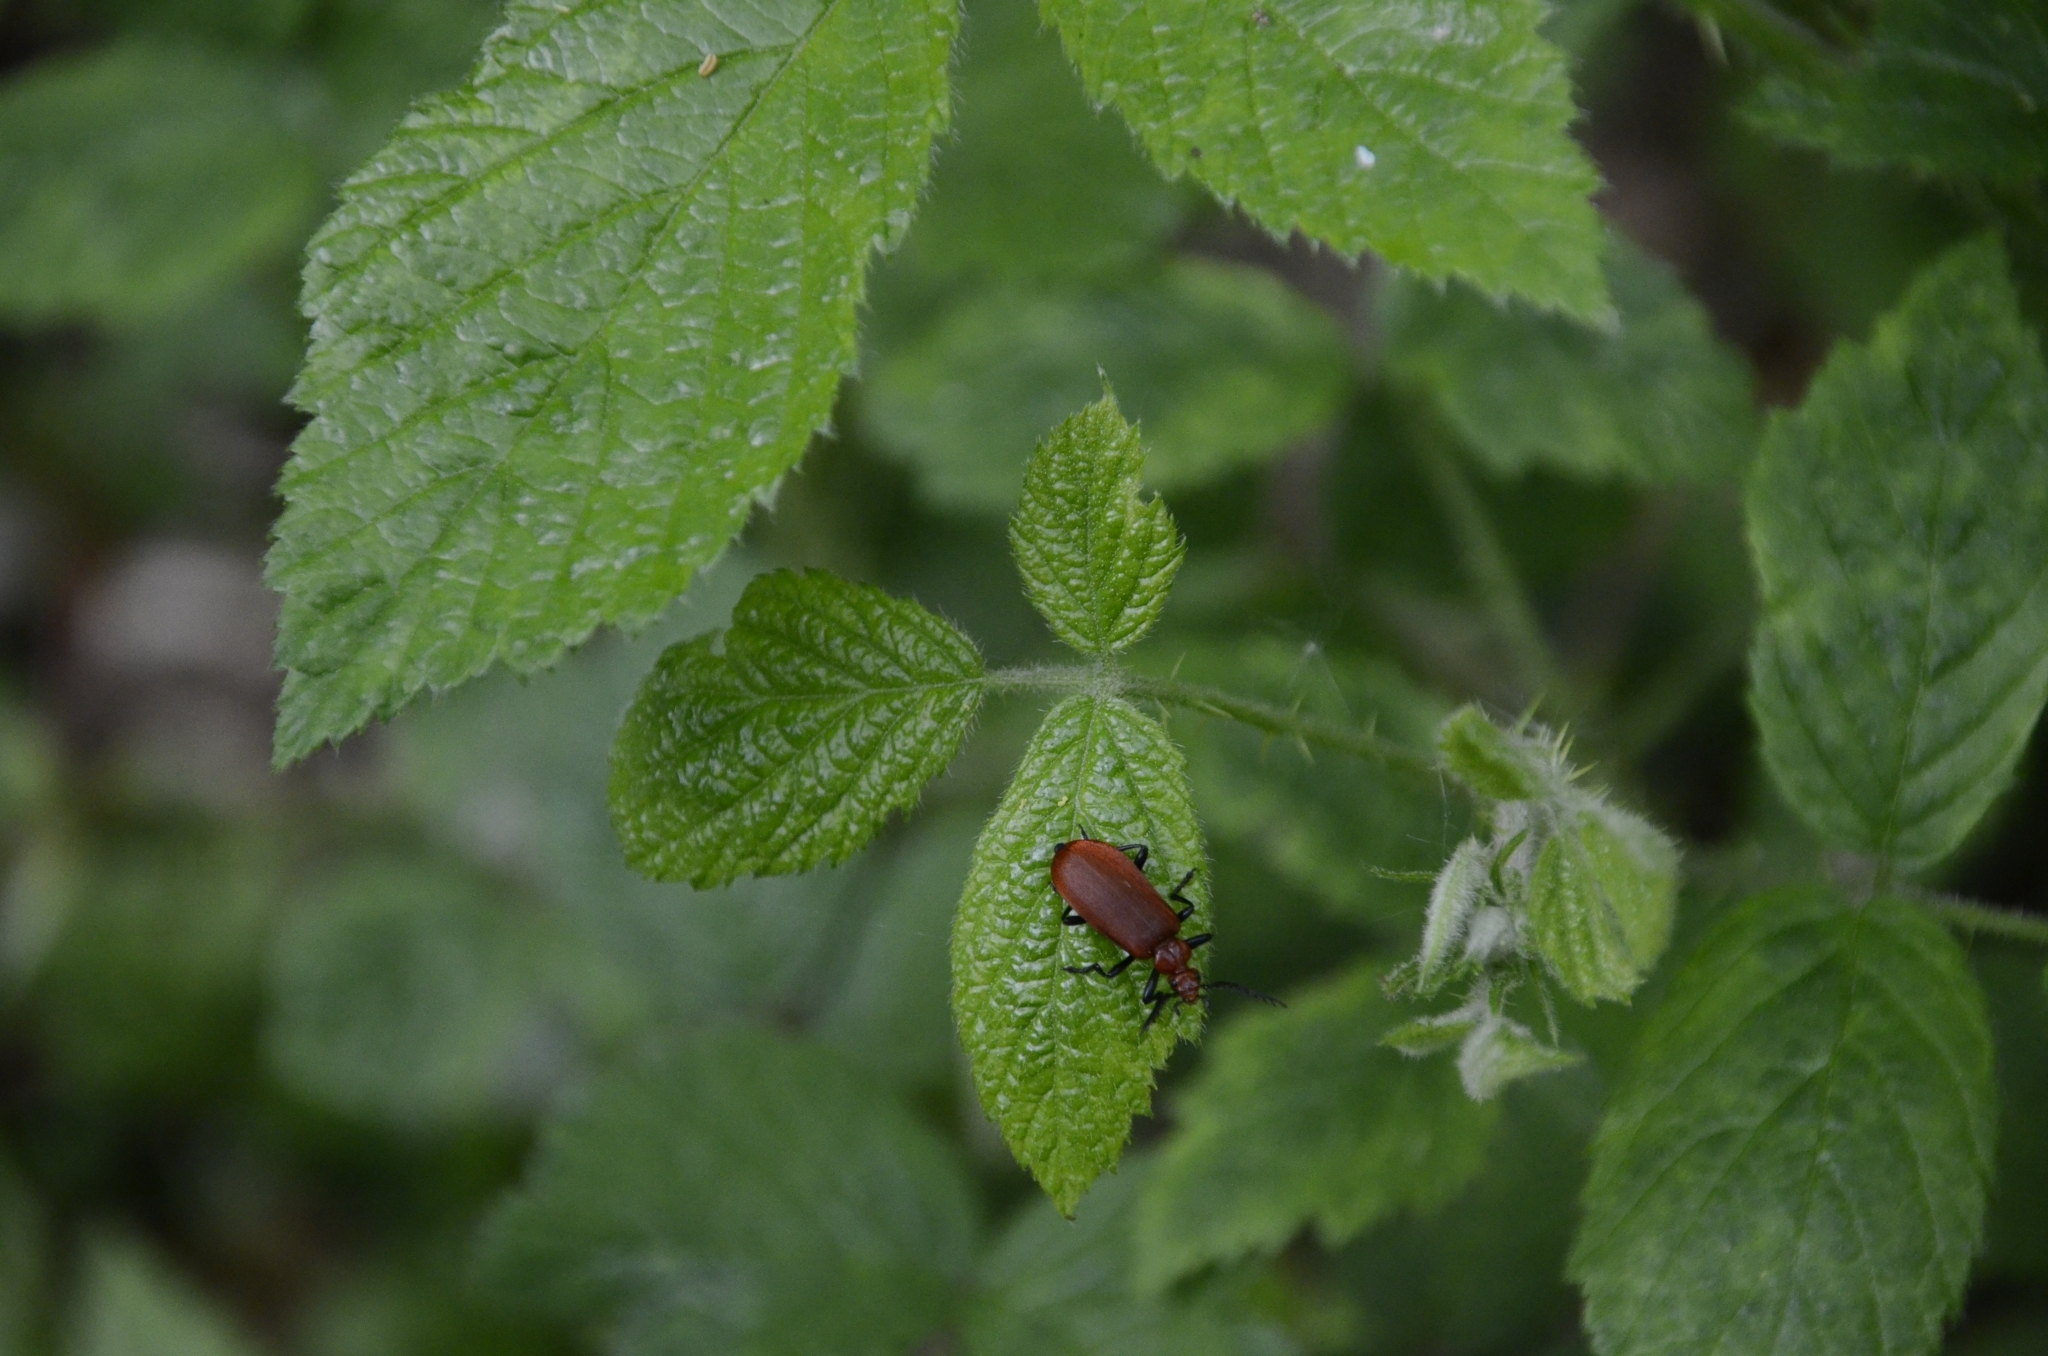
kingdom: Animalia
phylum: Arthropoda
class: Insecta
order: Coleoptera
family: Pyrochroidae
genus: Pyrochroa
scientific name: Pyrochroa serraticornis
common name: Red-headed cardinal beetle
